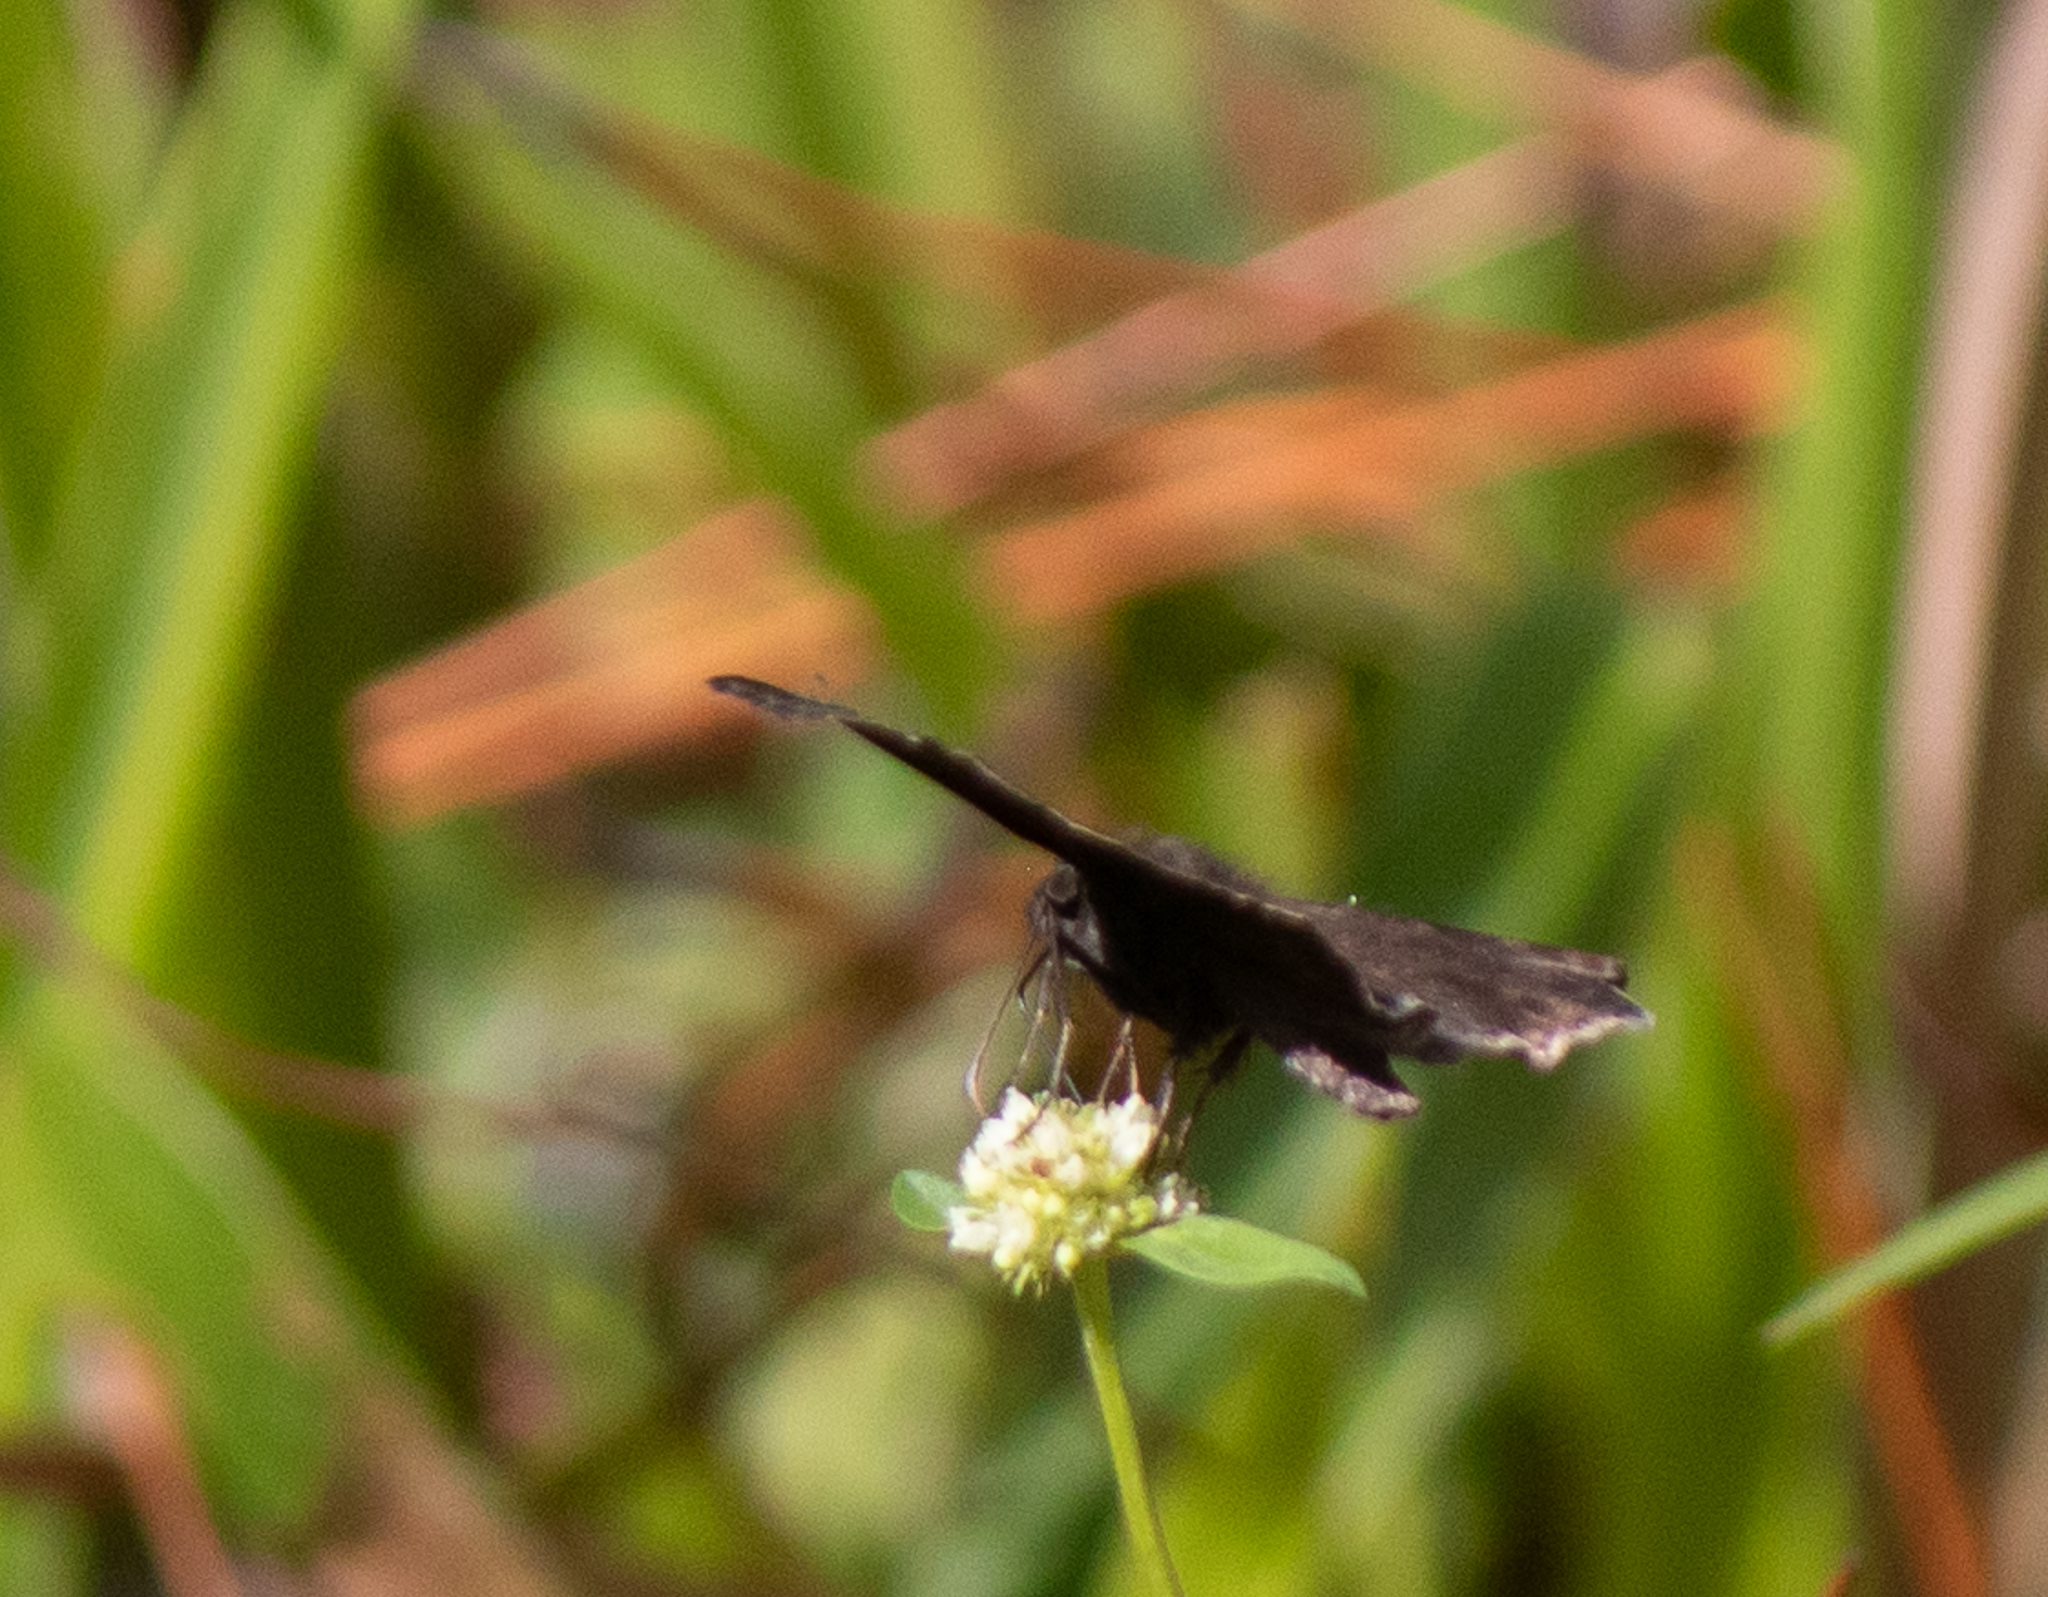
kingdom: Animalia
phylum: Arthropoda
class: Insecta
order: Lepidoptera
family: Hesperiidae
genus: Erynnis
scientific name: Erynnis zarucco
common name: Zarucco duskywing
